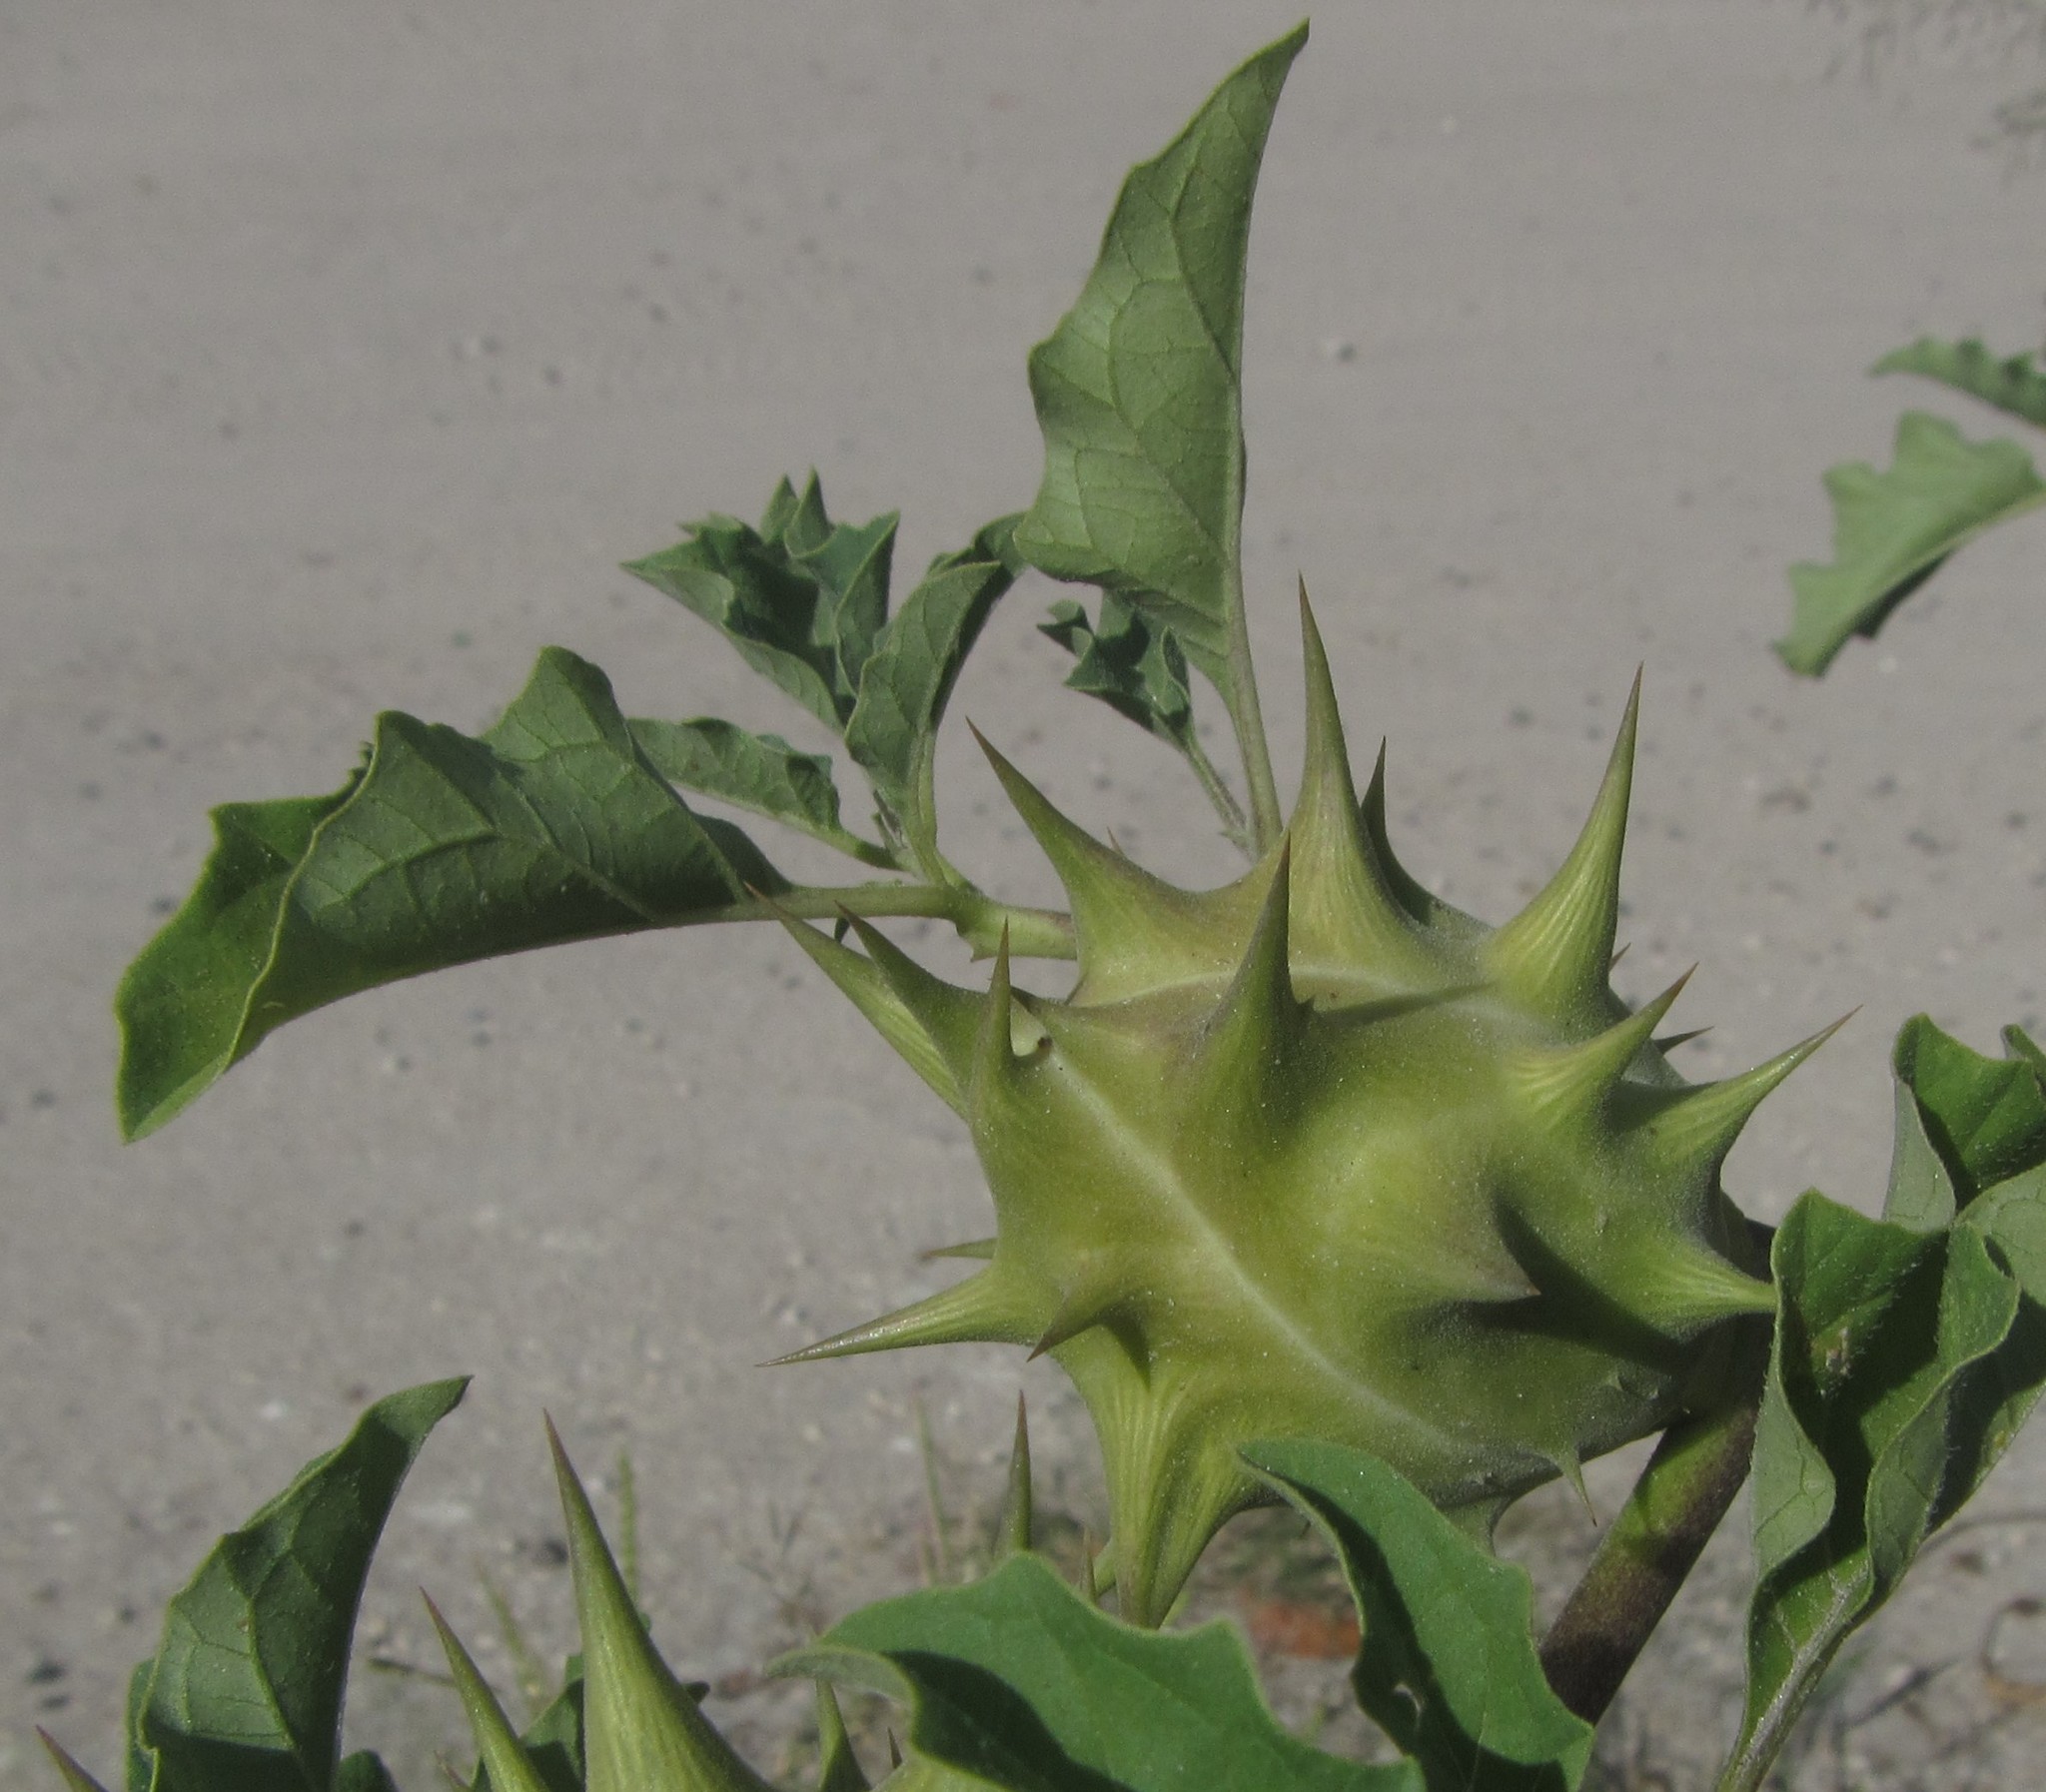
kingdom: Plantae
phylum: Tracheophyta
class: Magnoliopsida
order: Solanales
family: Solanaceae
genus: Datura
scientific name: Datura ferox
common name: Angel's-trumpets
